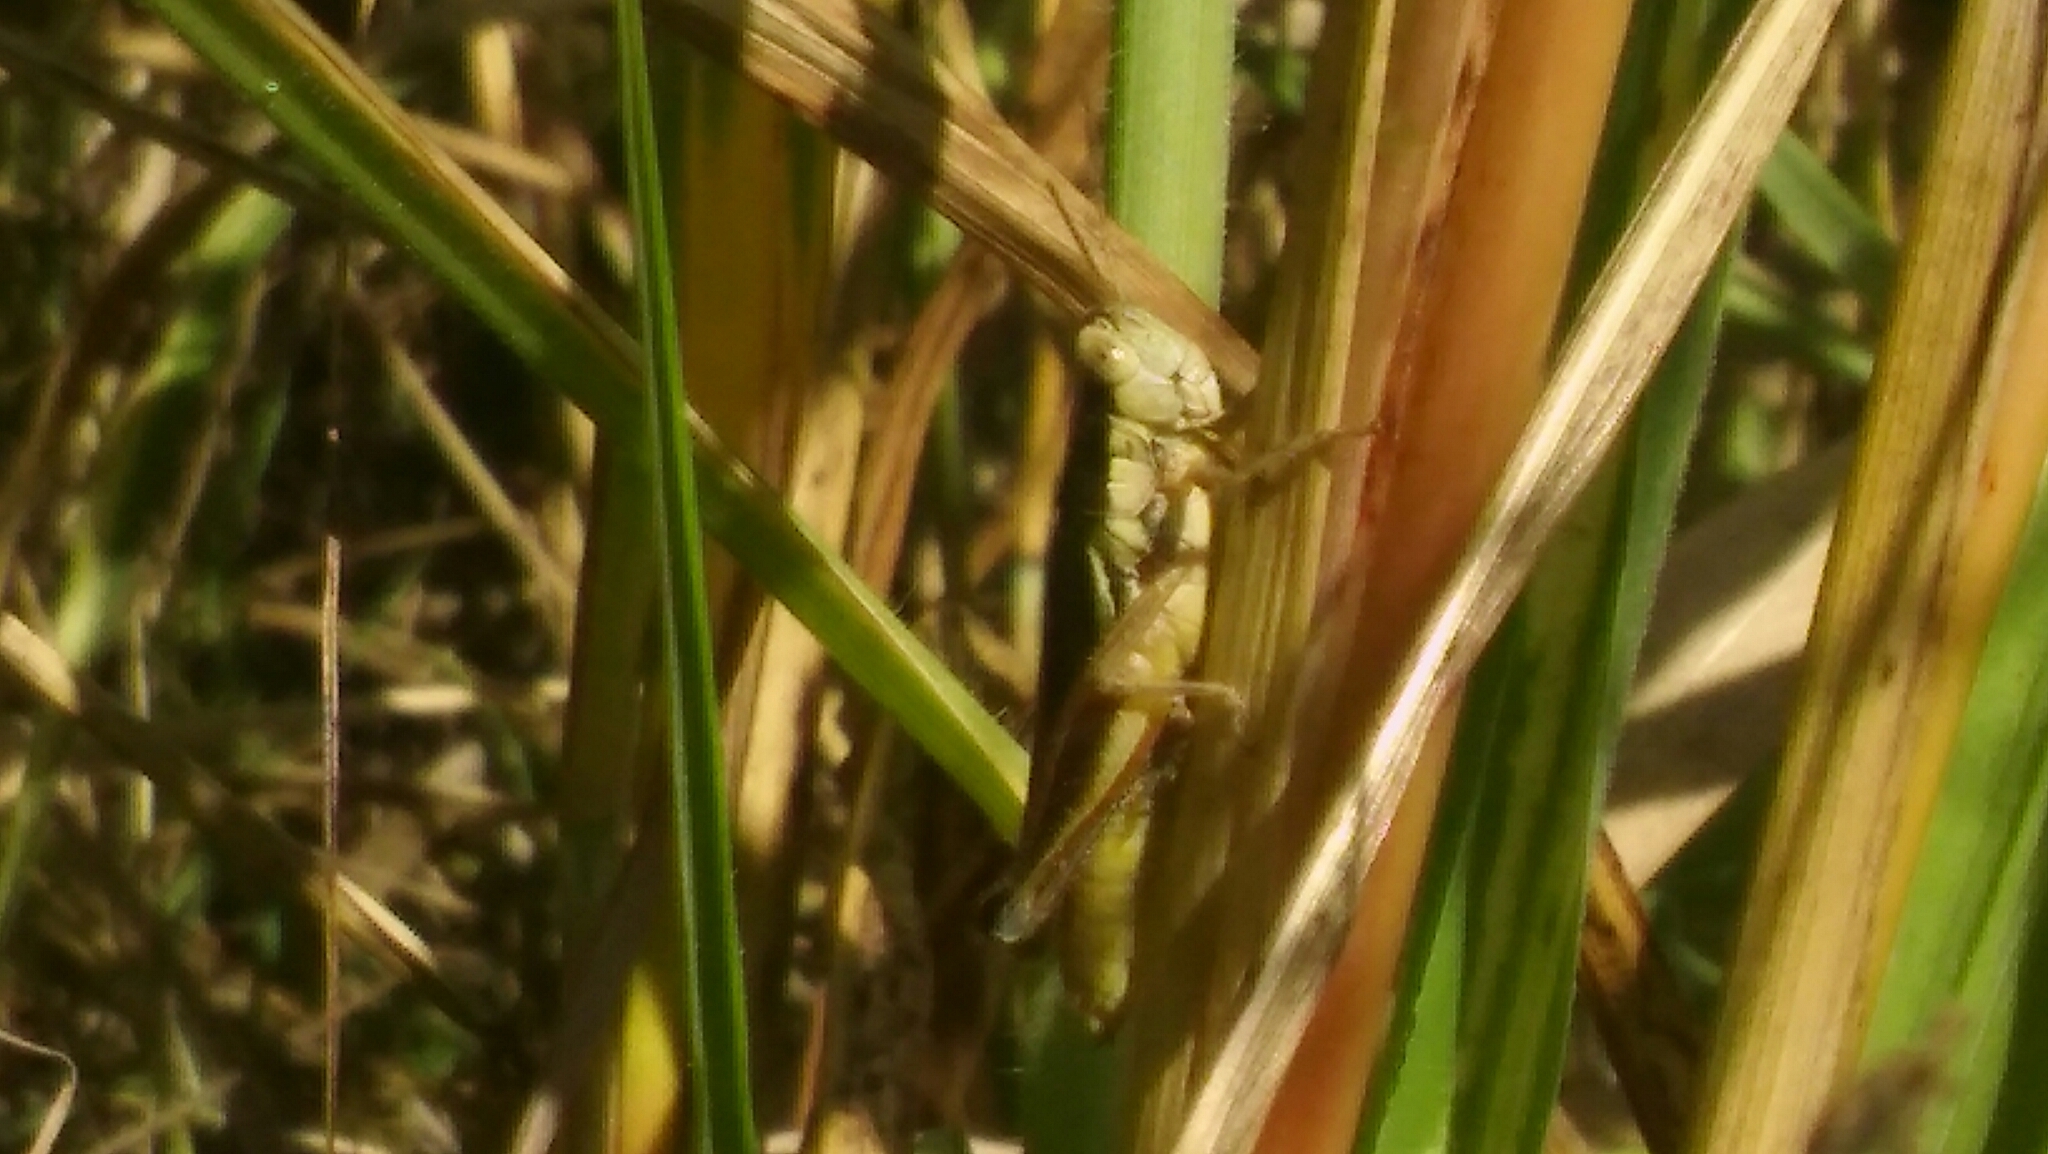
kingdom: Animalia
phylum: Arthropoda
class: Insecta
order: Orthoptera
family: Acrididae
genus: Scotussa
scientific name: Scotussa lemniscata
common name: Slender orange-legged grasshopper
